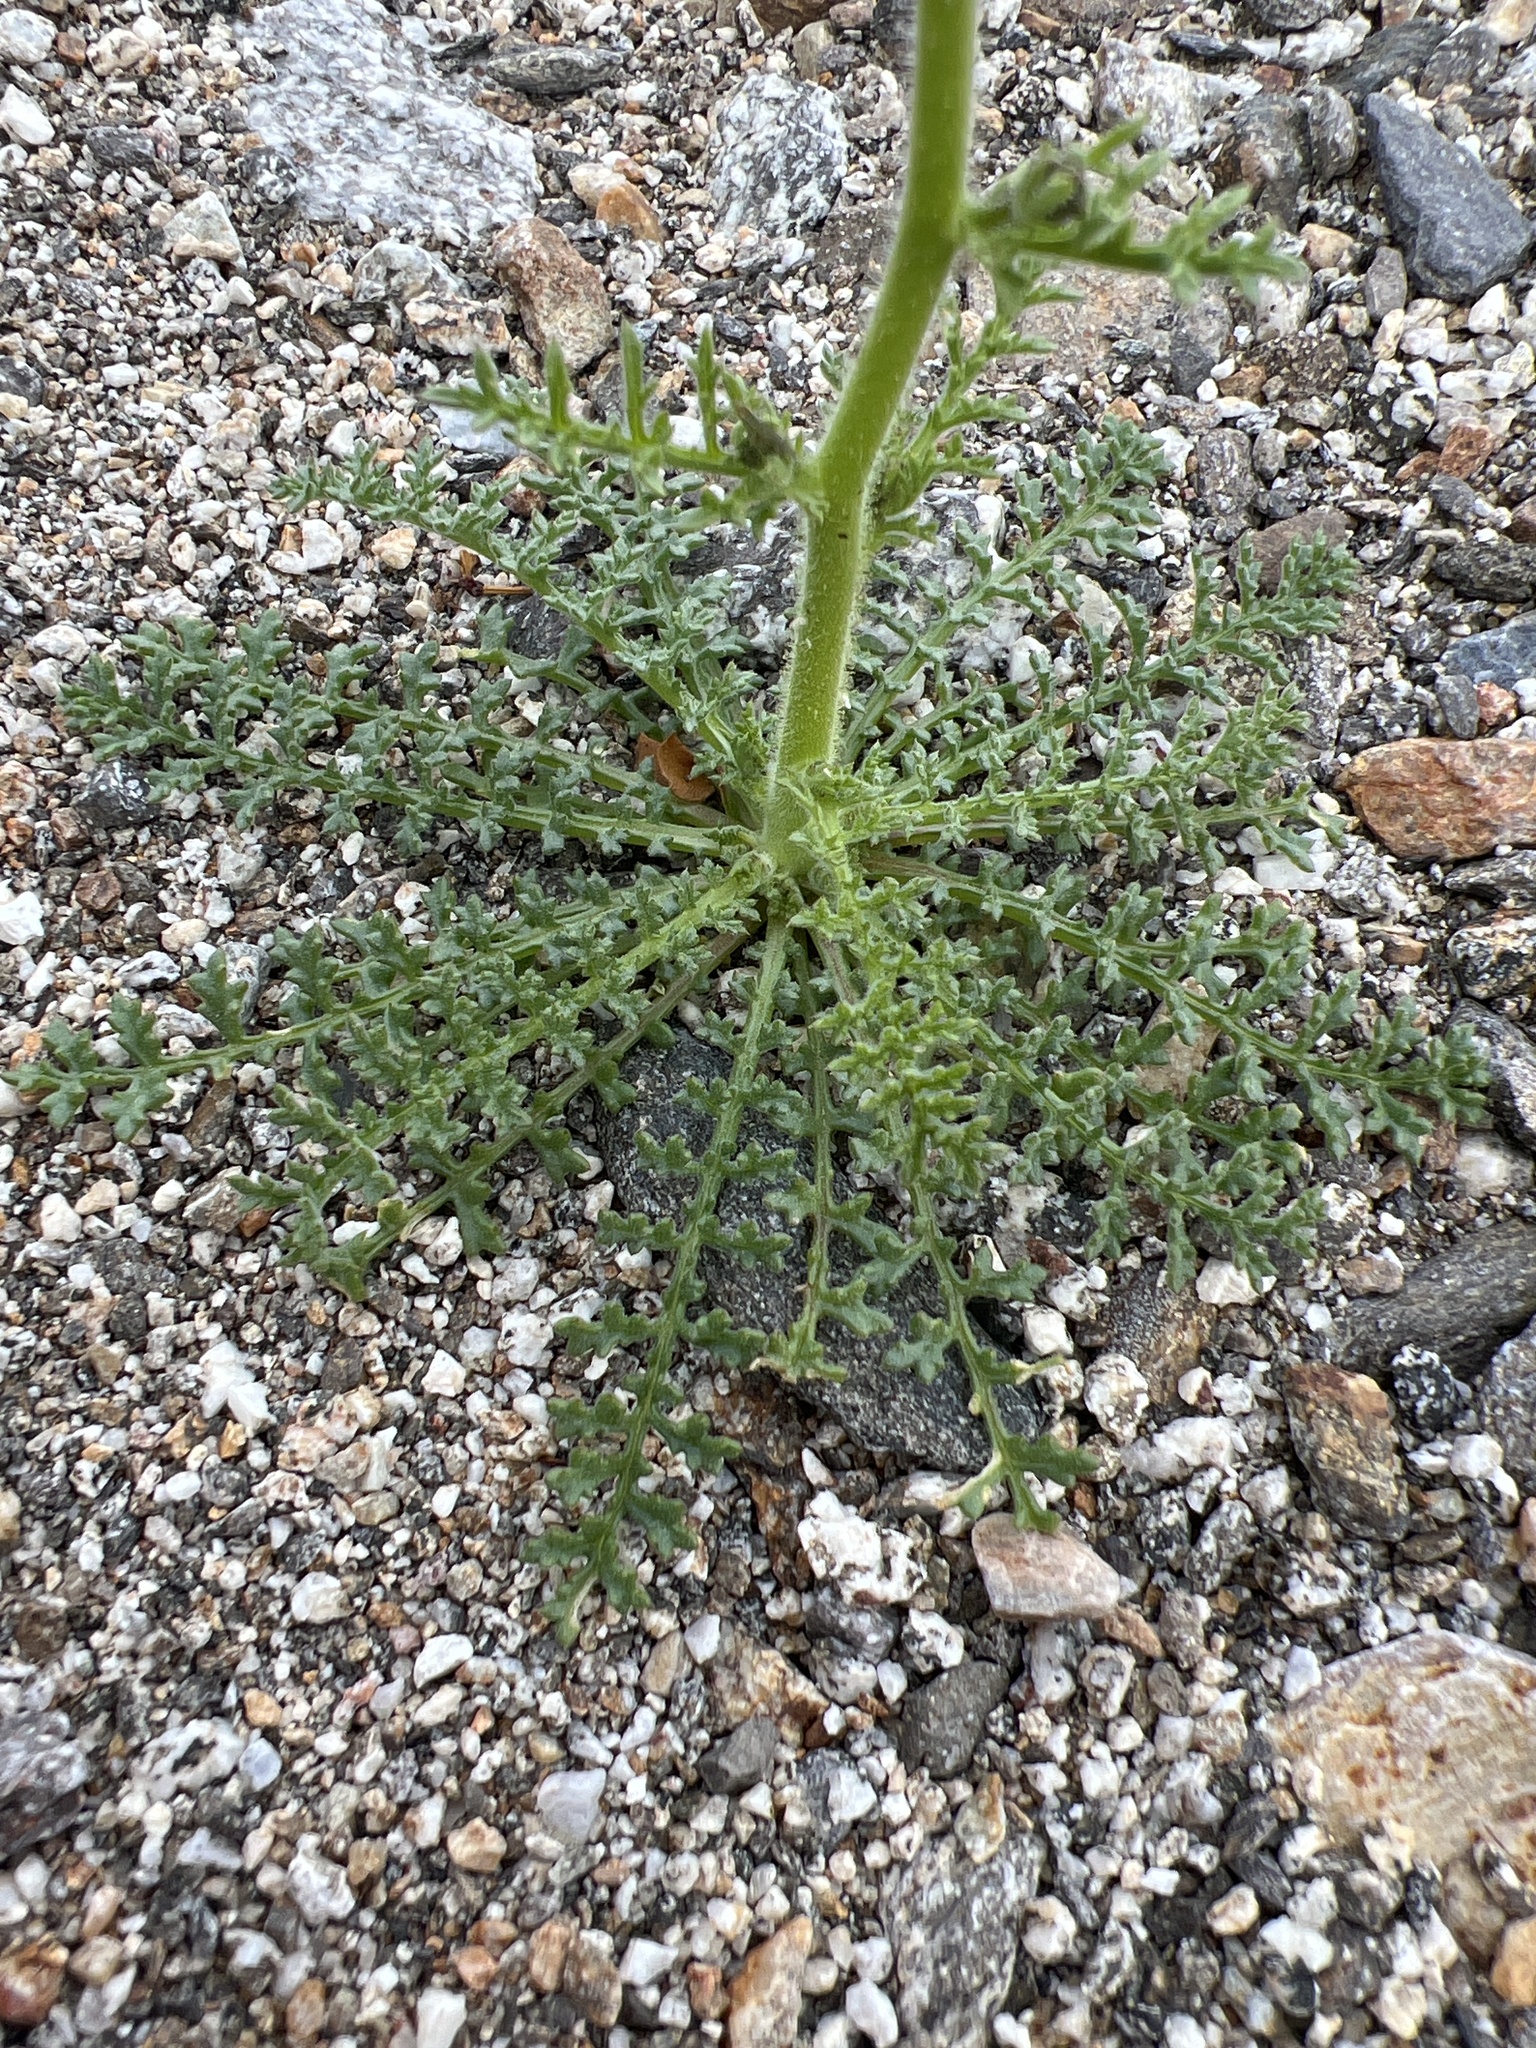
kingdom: Plantae
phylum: Tracheophyta
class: Magnoliopsida
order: Ericales
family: Polemoniaceae
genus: Gilia
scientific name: Gilia stellata
